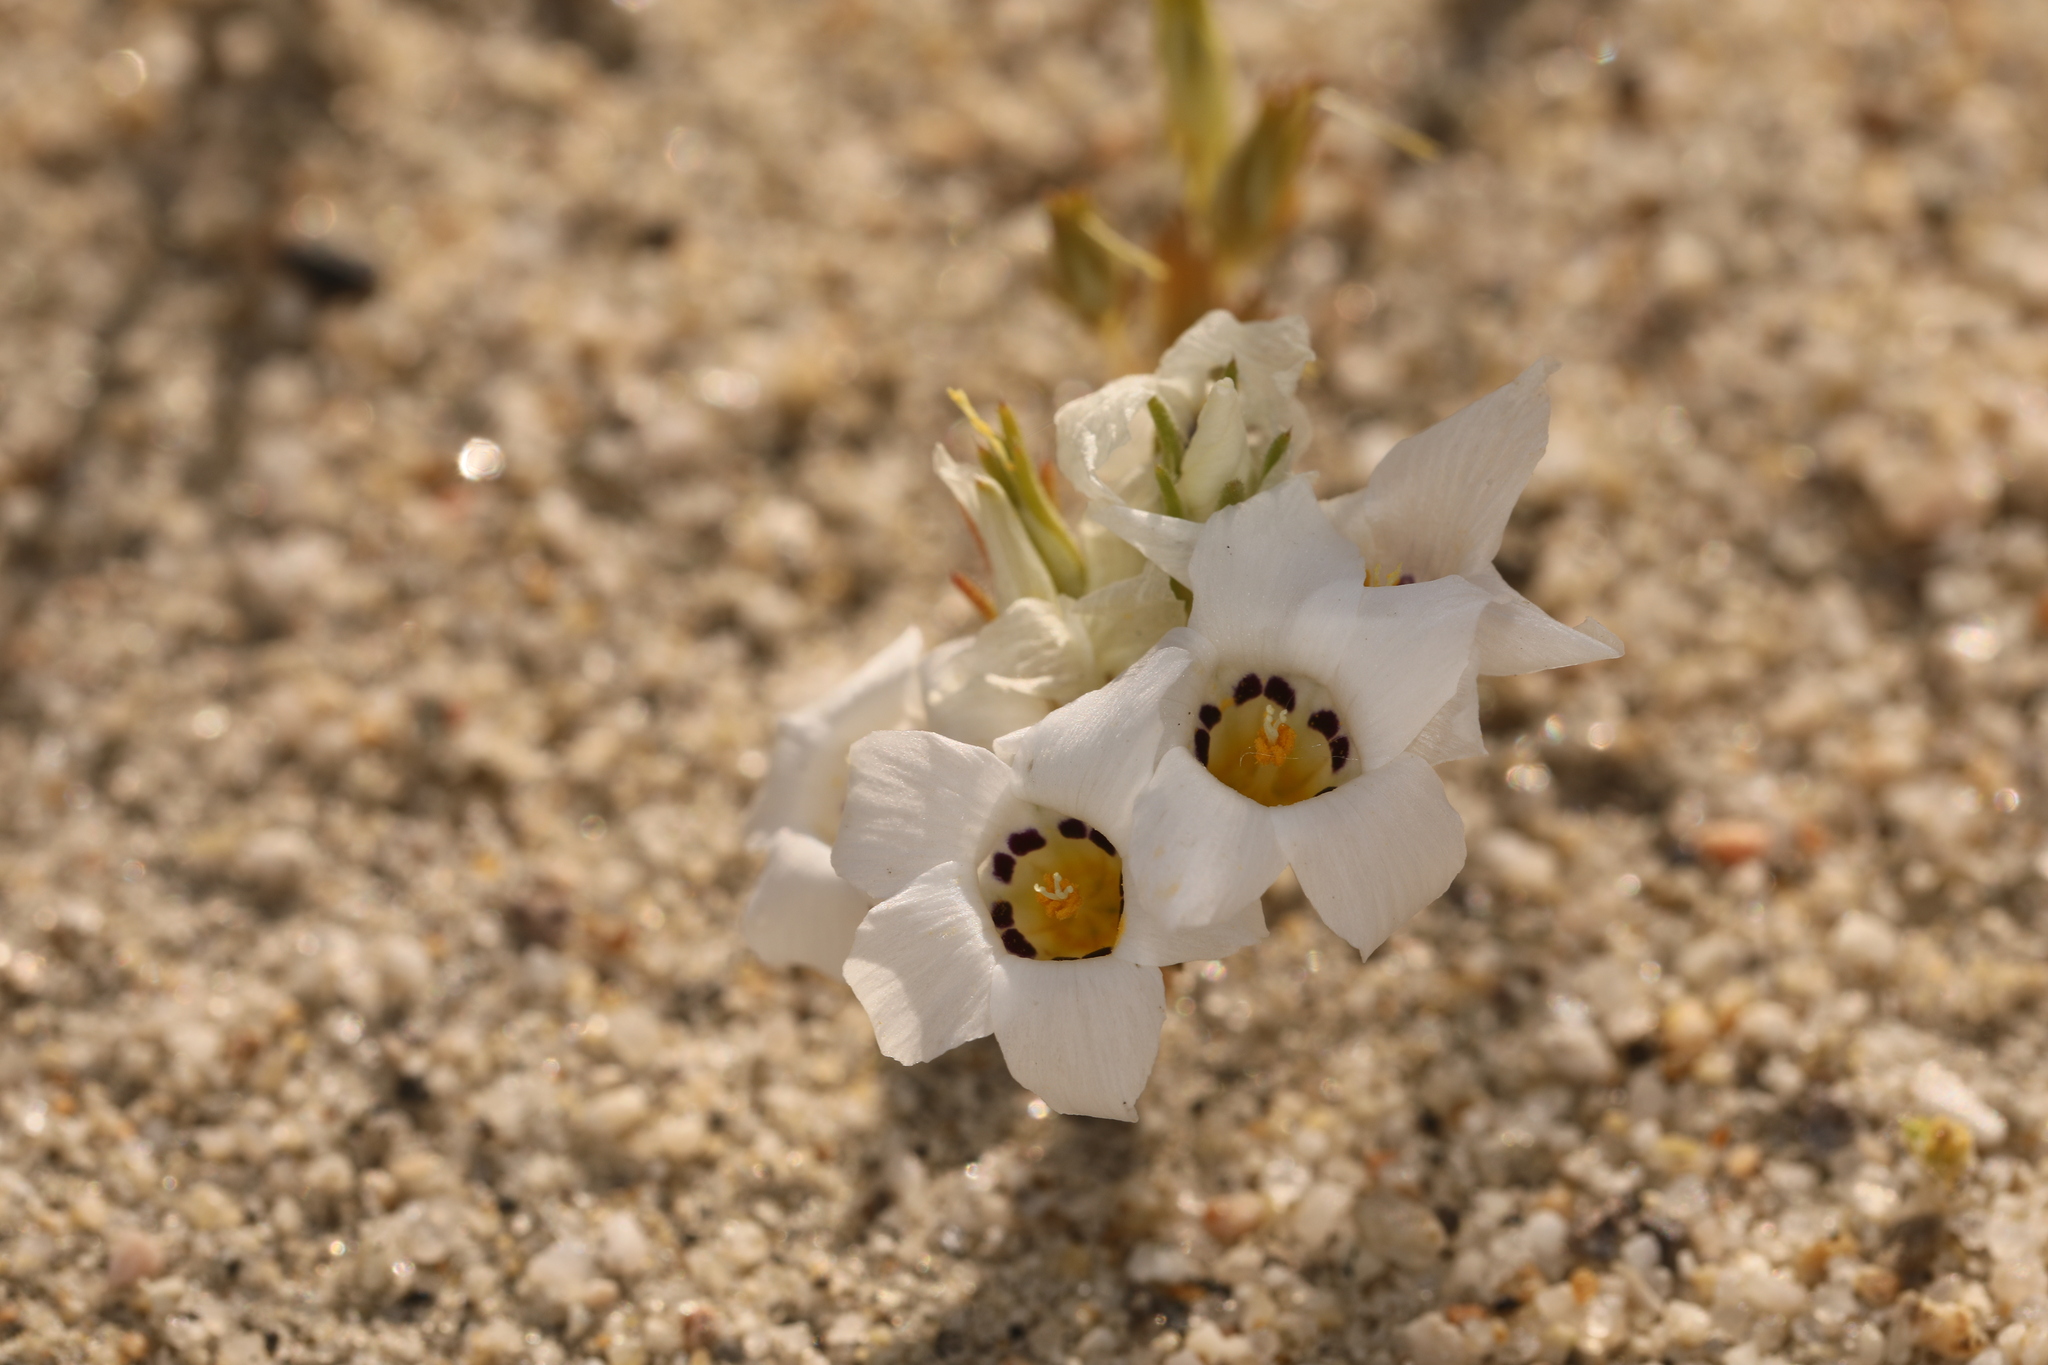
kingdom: Plantae
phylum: Tracheophyta
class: Magnoliopsida
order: Ericales
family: Polemoniaceae
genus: Linanthus
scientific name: Linanthus parryae
